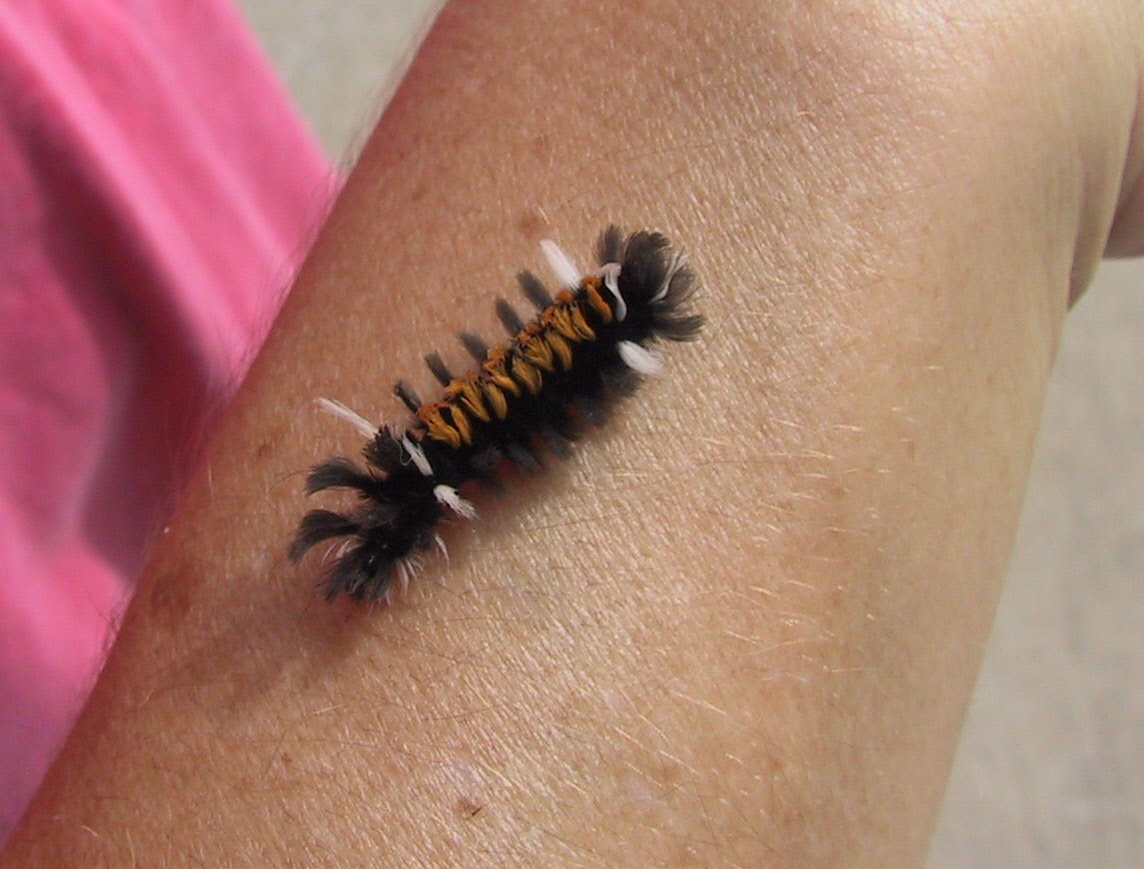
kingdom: Animalia
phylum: Arthropoda
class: Insecta
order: Lepidoptera
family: Erebidae
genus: Euchaetes
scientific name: Euchaetes egle
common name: Milkweed tussock moth
